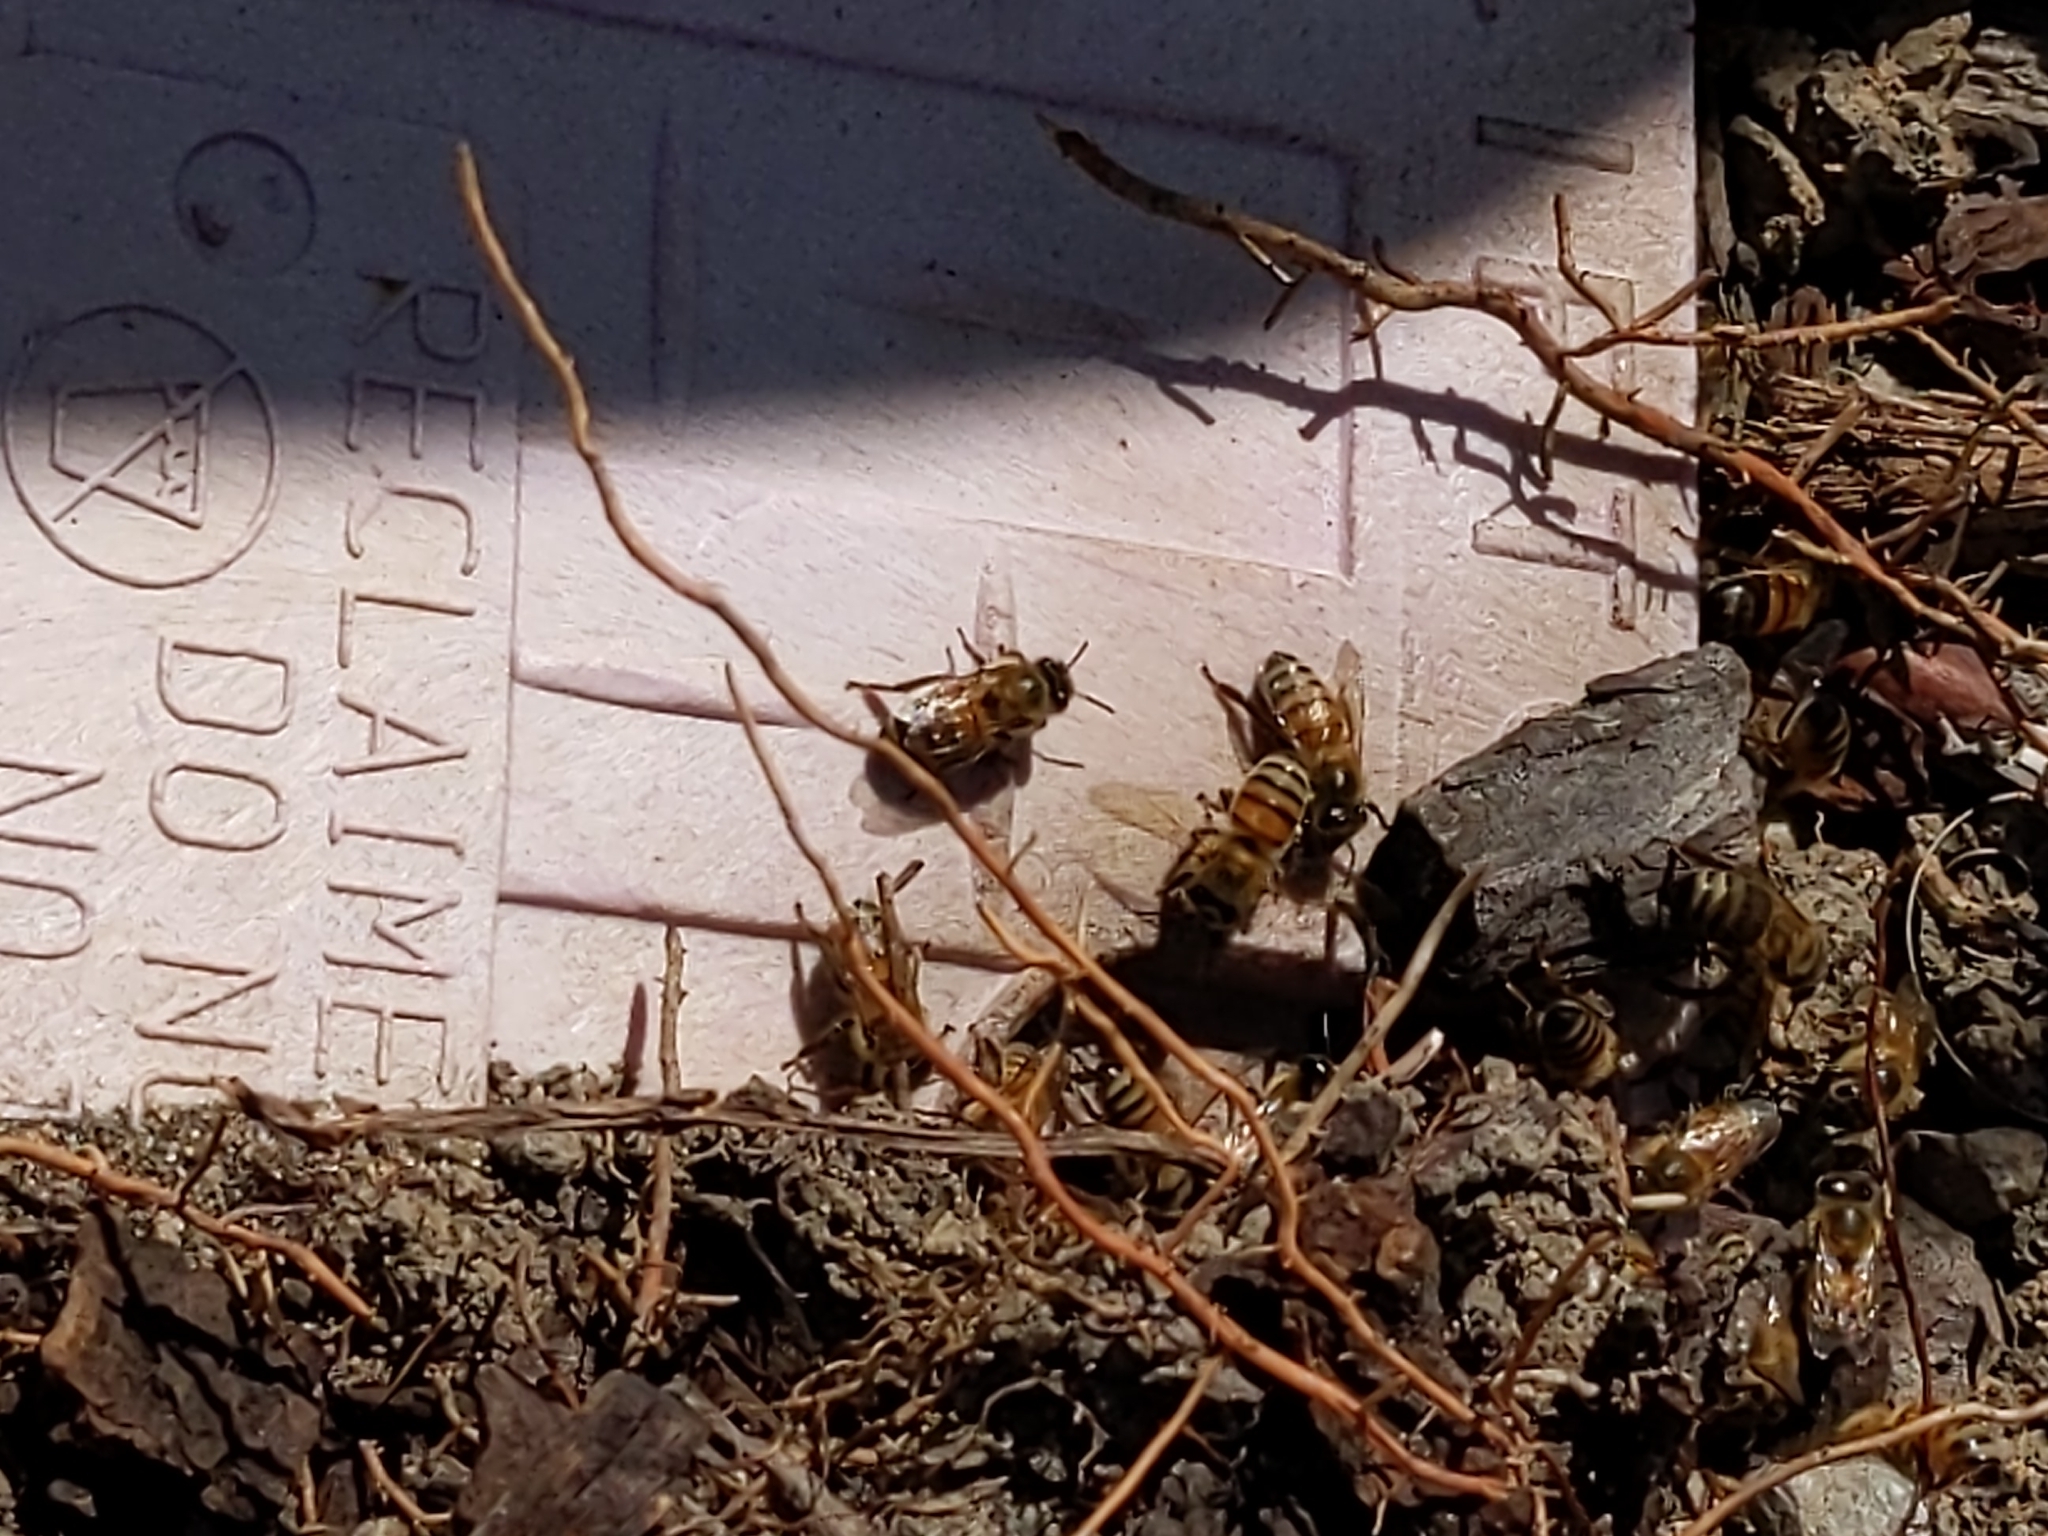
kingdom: Animalia
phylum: Arthropoda
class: Insecta
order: Hymenoptera
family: Apidae
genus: Apis
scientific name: Apis mellifera
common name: Honey bee
